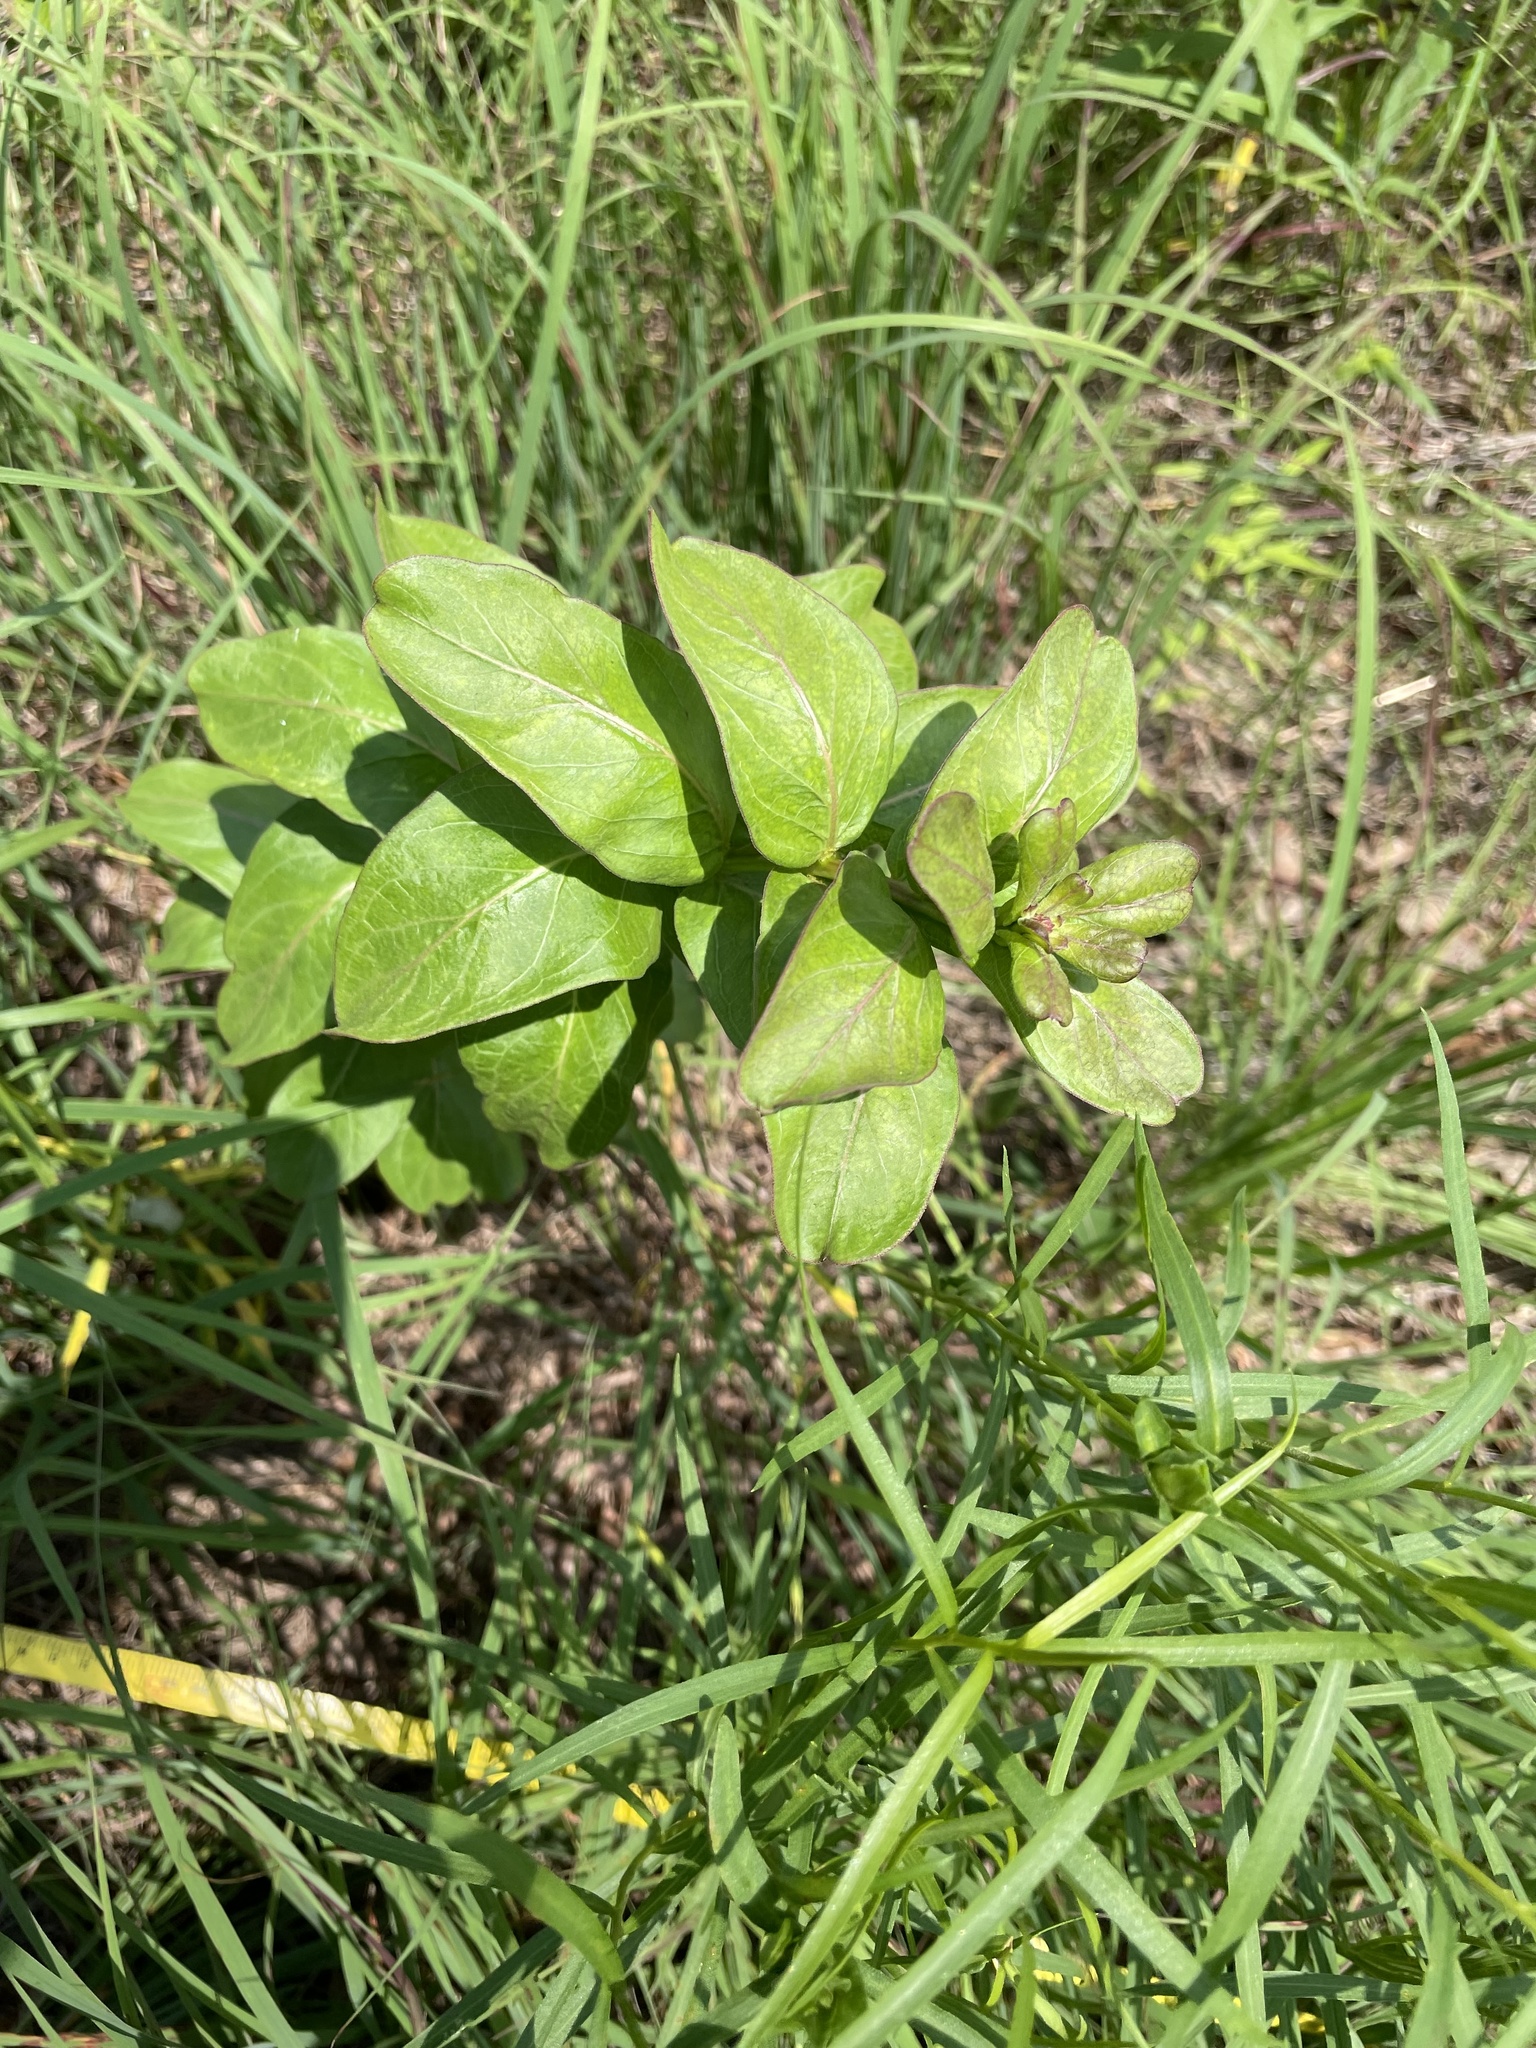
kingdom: Plantae
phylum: Tracheophyta
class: Magnoliopsida
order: Gentianales
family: Apocynaceae
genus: Asclepias
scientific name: Asclepias viridis
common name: Antelope-horns
